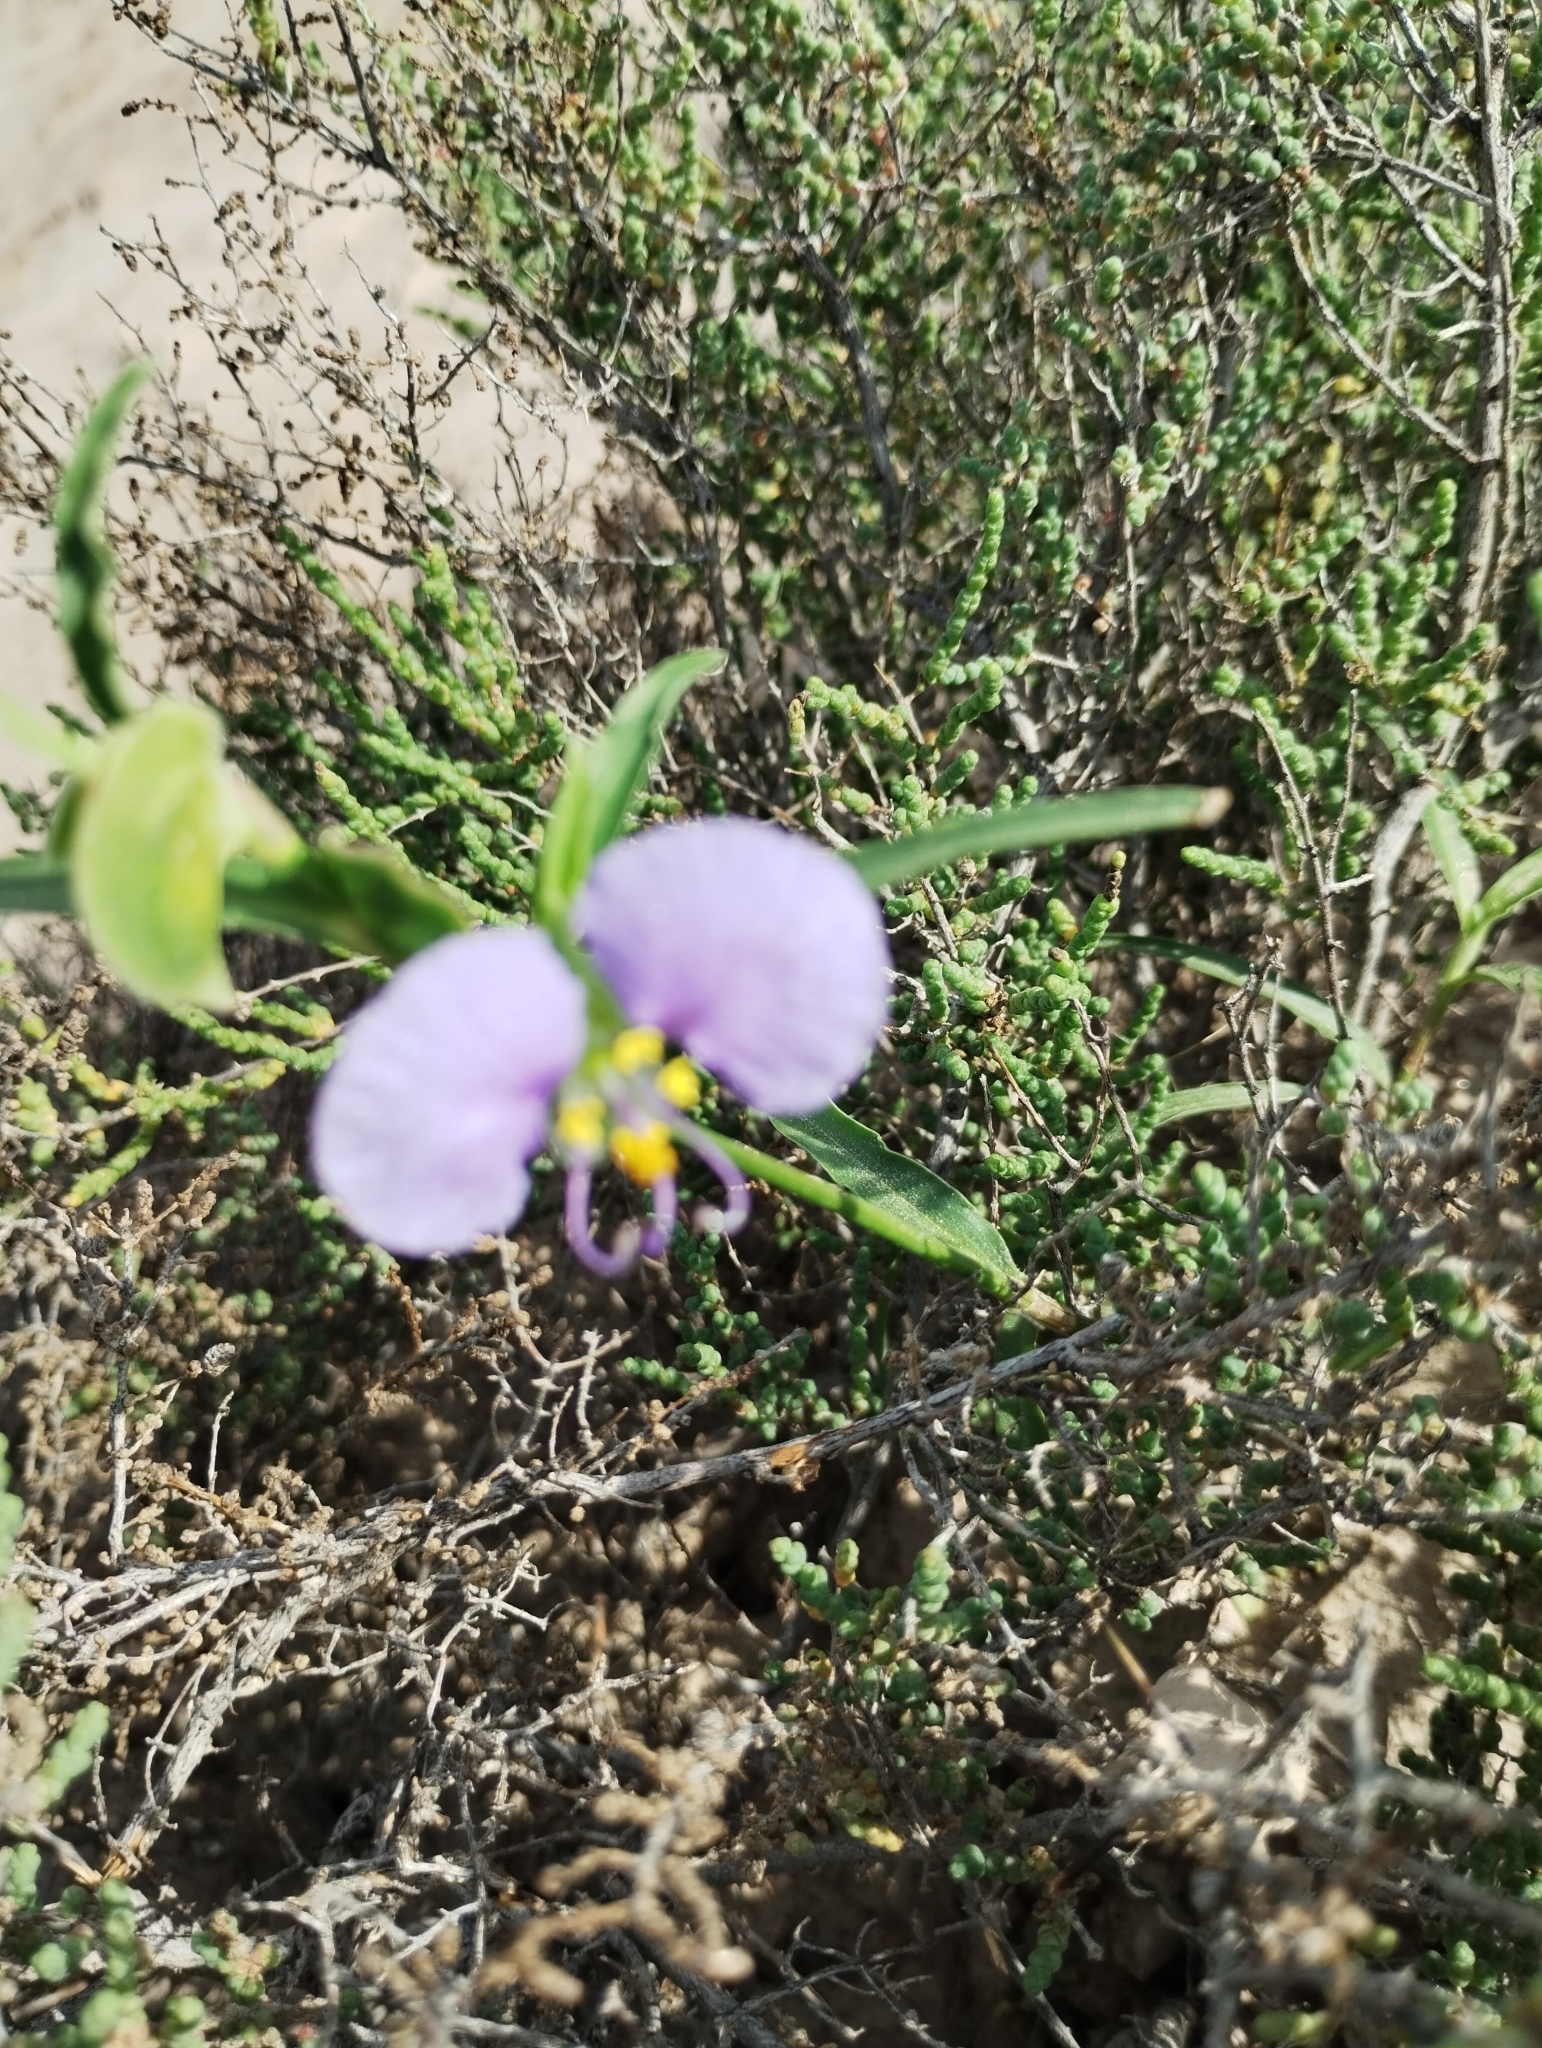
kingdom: Plantae
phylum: Tracheophyta
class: Liliopsida
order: Commelinales
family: Commelinaceae
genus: Commelina
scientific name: Commelina erecta
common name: Blousel blommetjie
